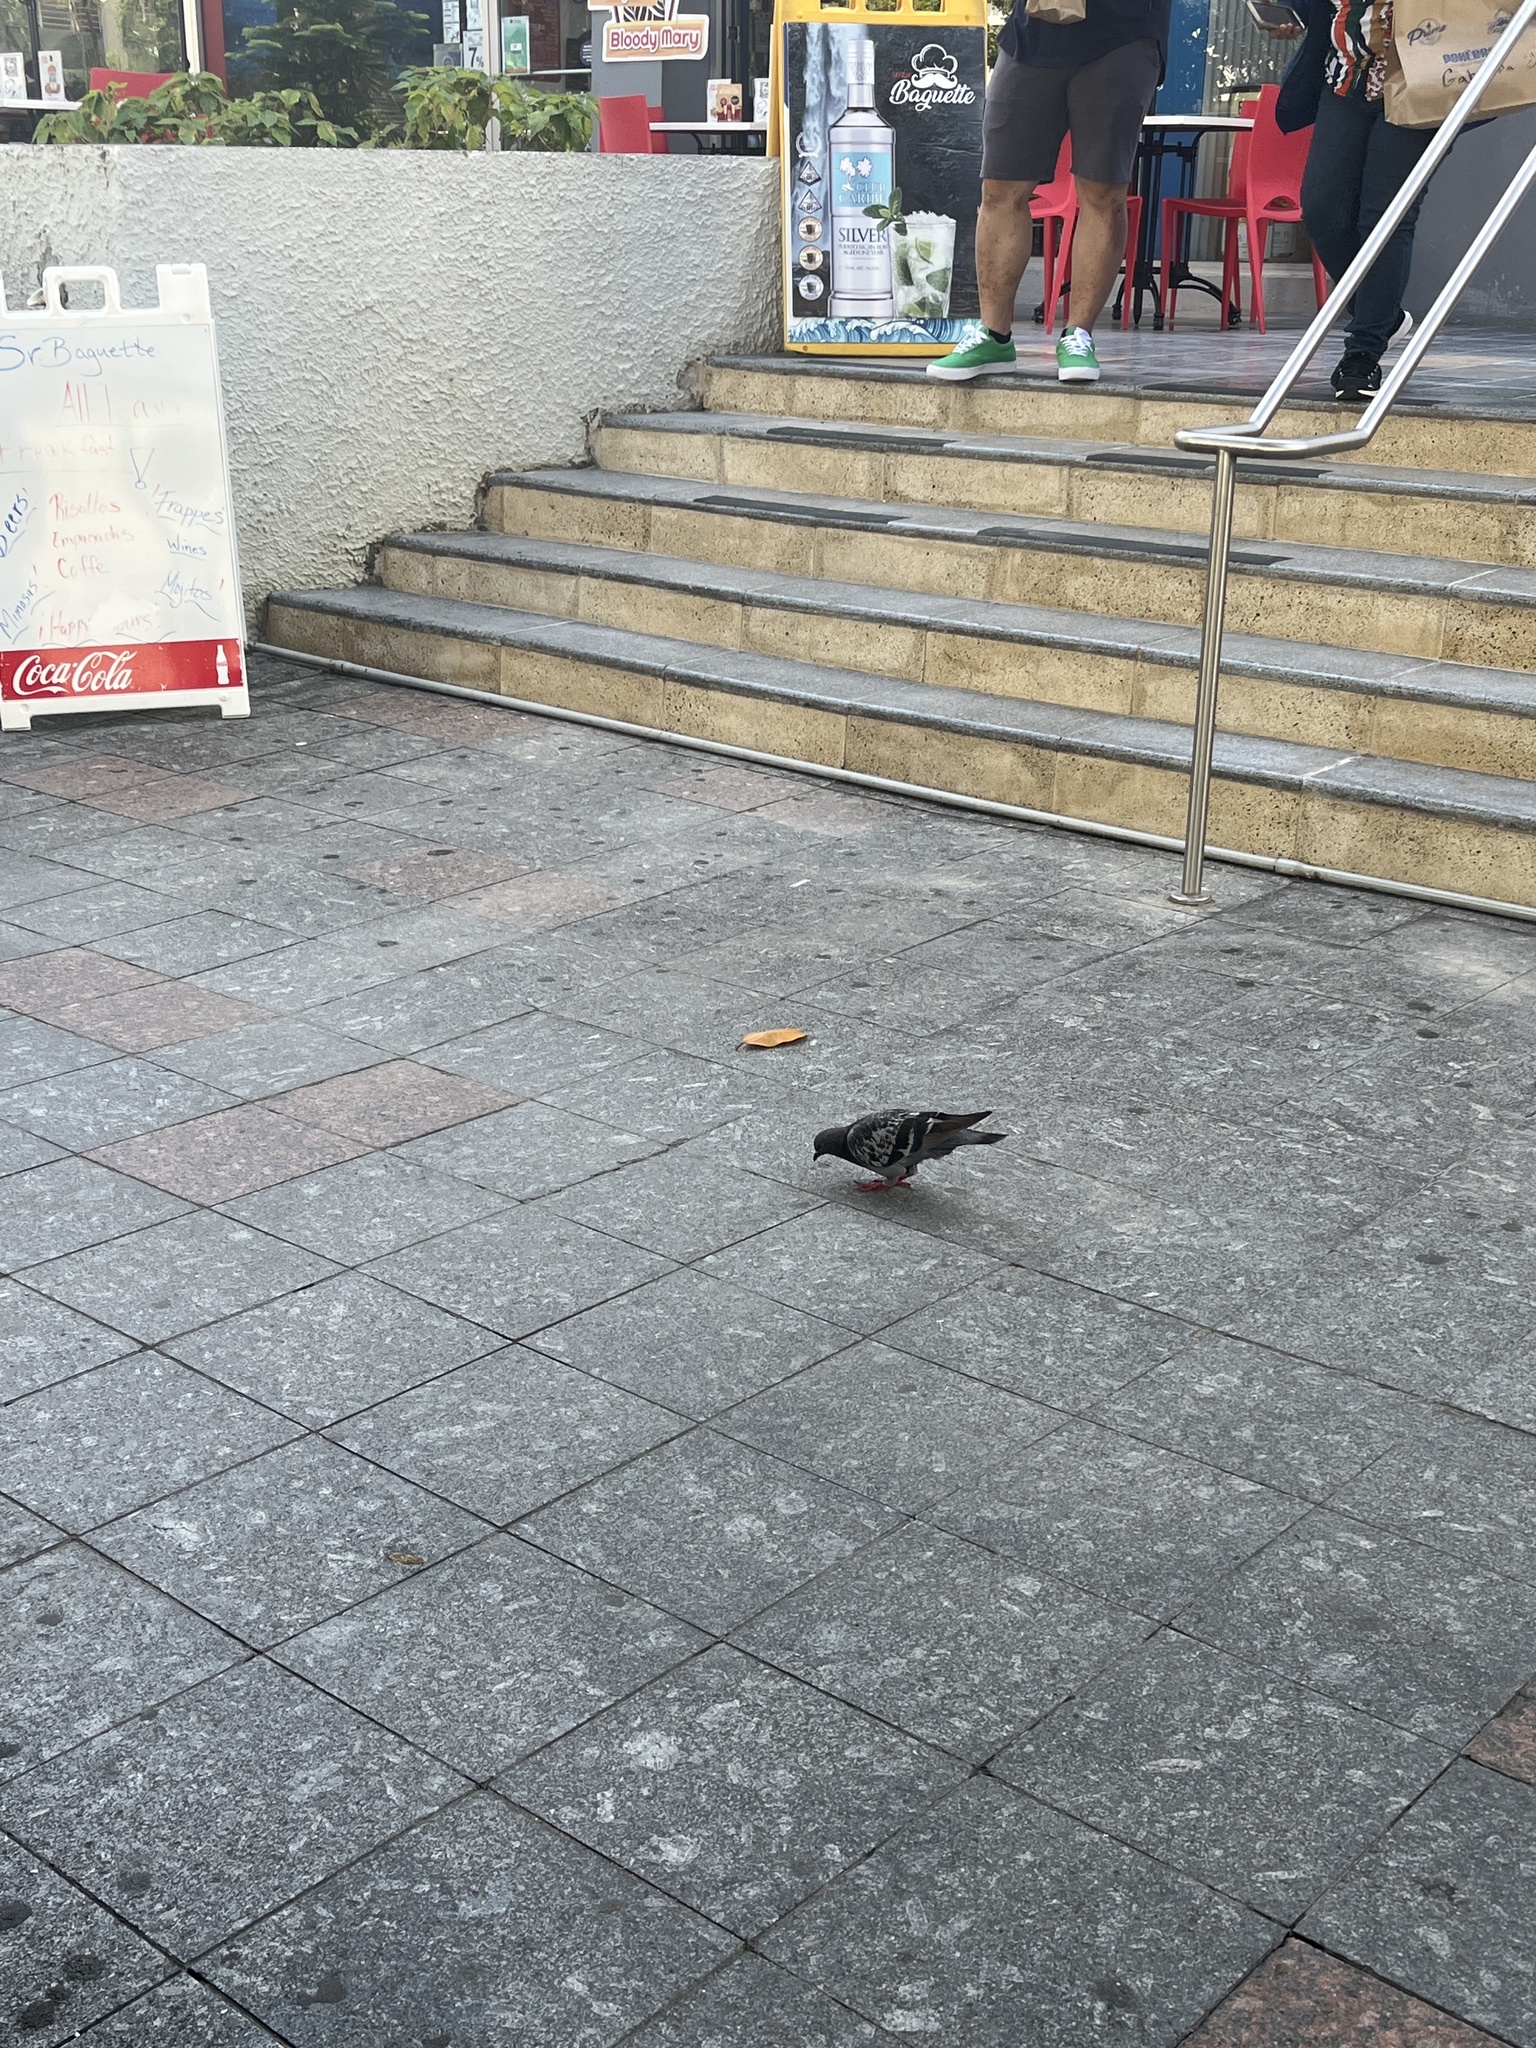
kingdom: Animalia
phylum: Chordata
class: Aves
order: Columbiformes
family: Columbidae
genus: Columba
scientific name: Columba livia
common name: Rock pigeon
